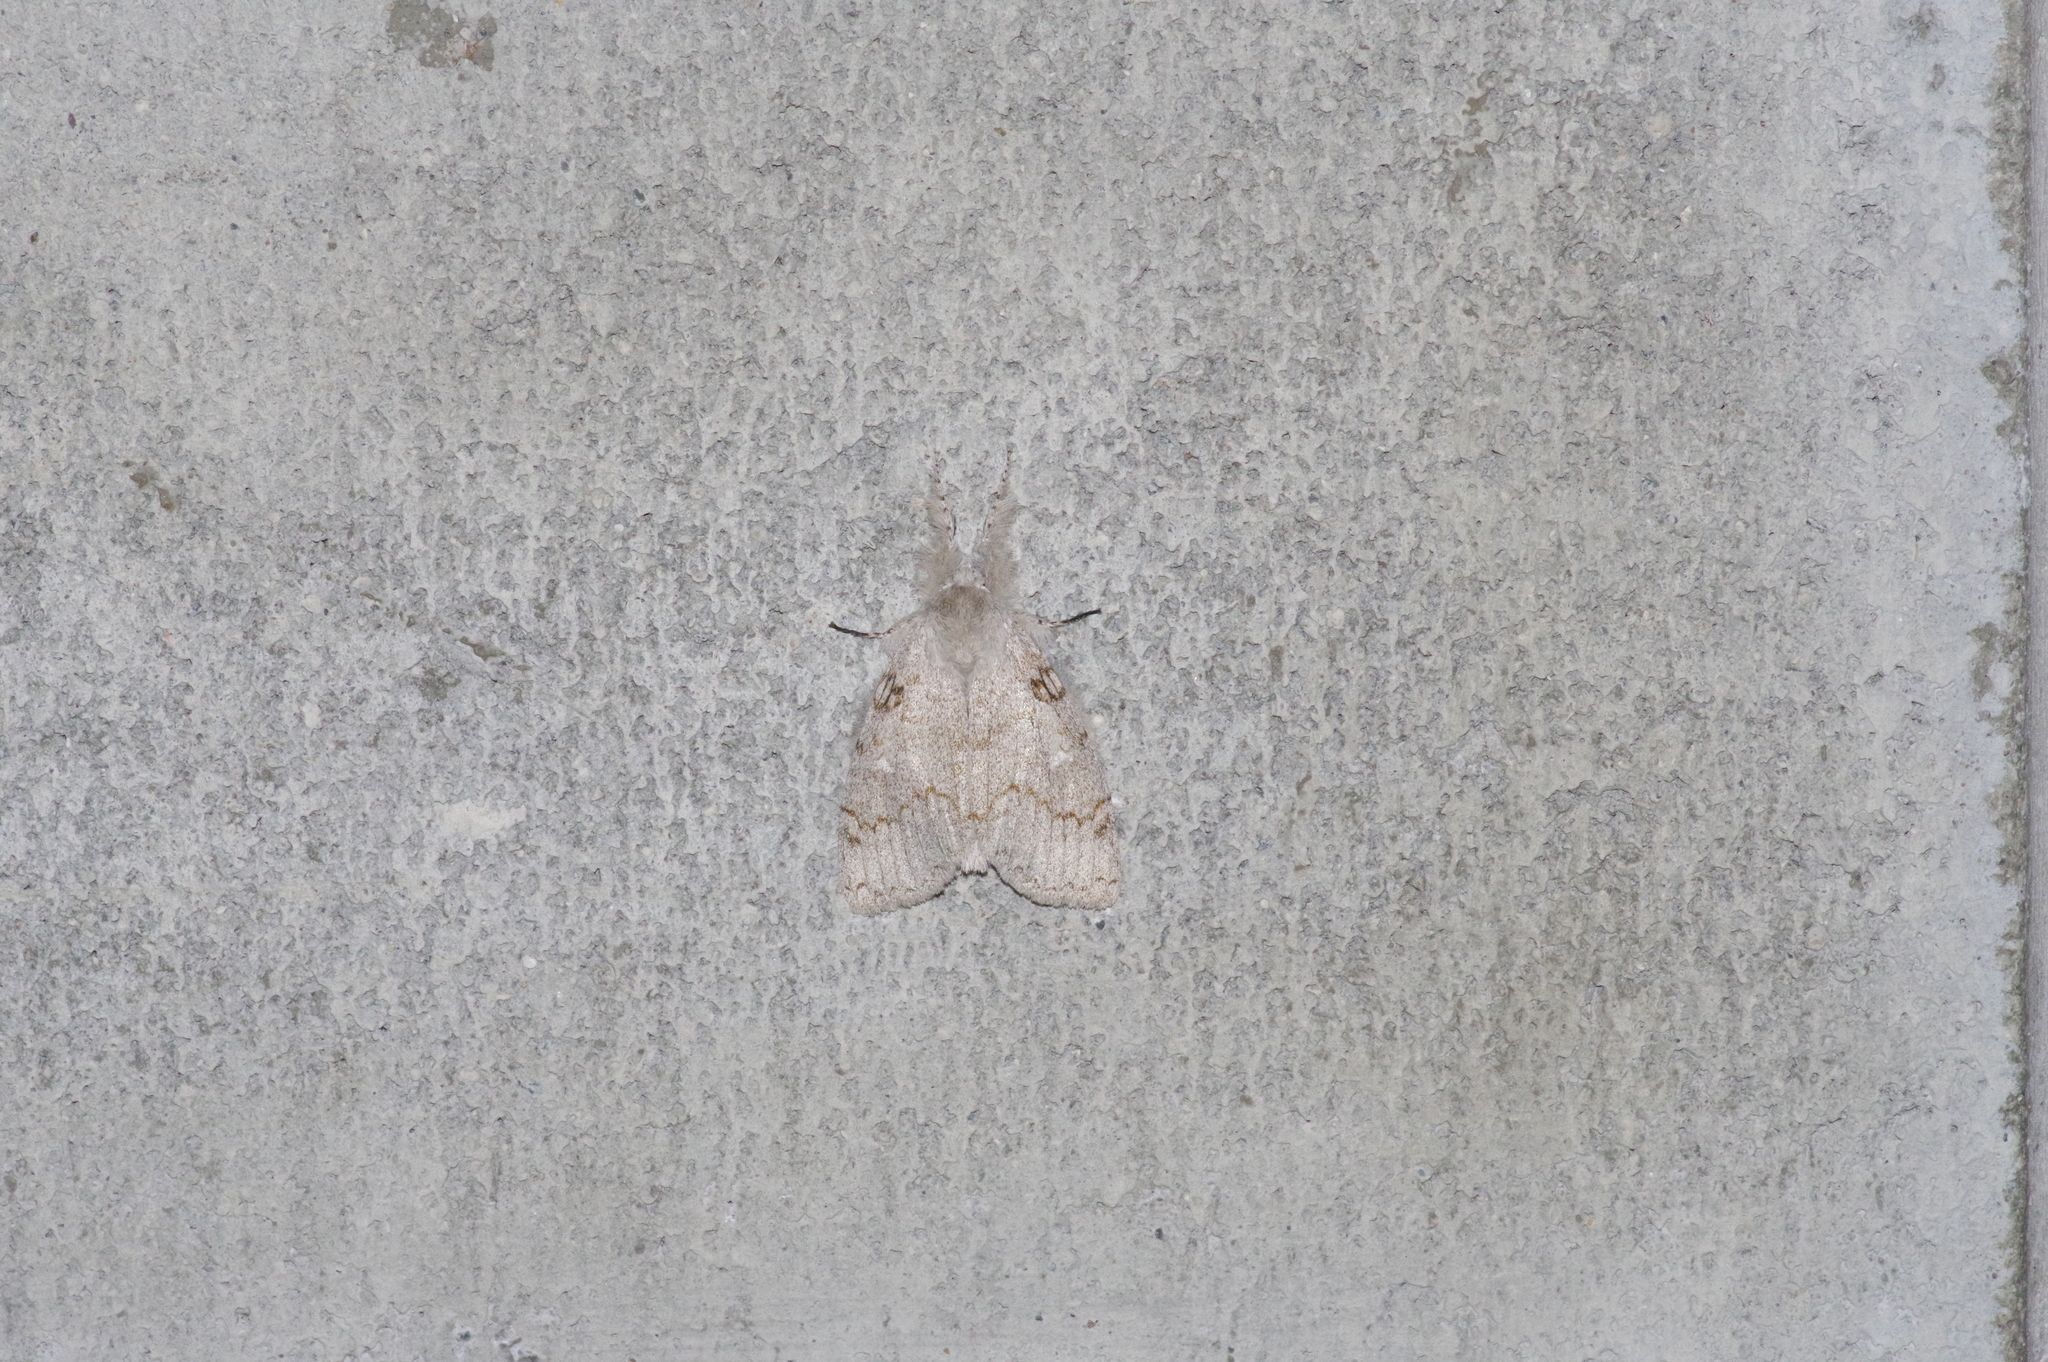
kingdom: Animalia
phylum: Arthropoda
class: Insecta
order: Lepidoptera
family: Erebidae
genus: Calliteara
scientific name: Calliteara lunulata
